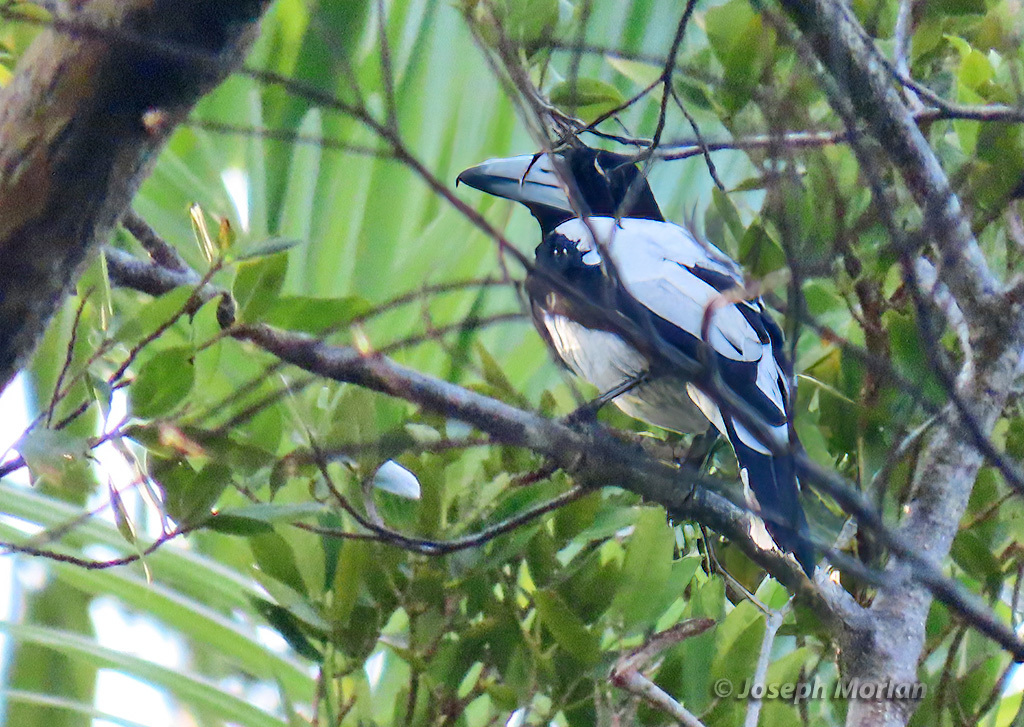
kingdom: Animalia
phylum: Chordata
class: Aves
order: Passeriformes
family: Cracticidae
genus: Cracticus
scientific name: Cracticus cassicus
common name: Hooded butcherbird
